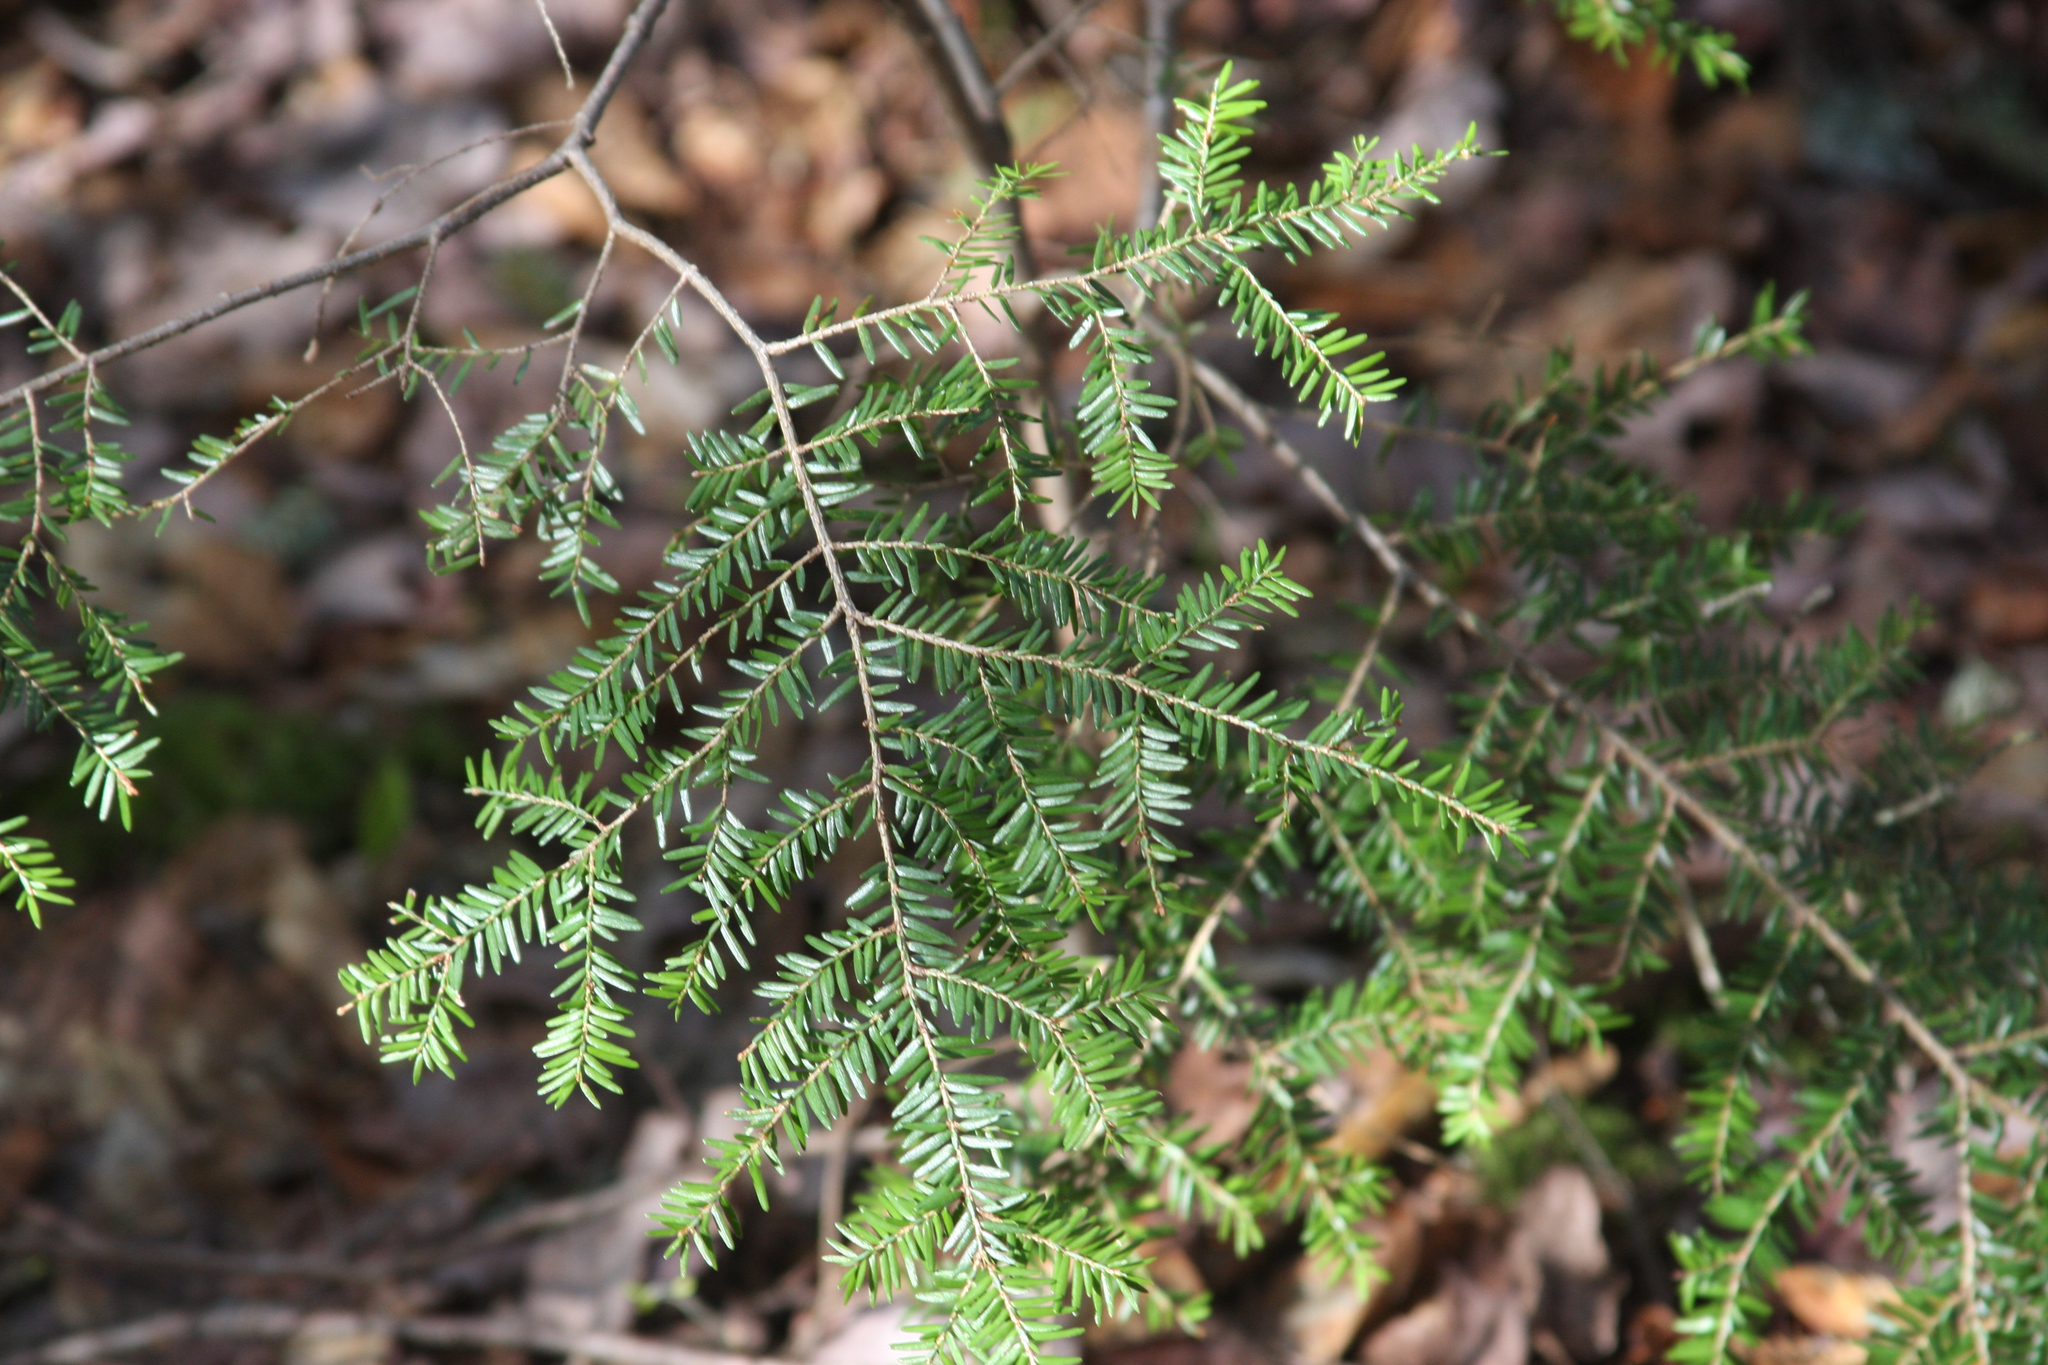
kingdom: Plantae
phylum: Tracheophyta
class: Pinopsida
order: Pinales
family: Pinaceae
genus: Tsuga
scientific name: Tsuga canadensis
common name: Eastern hemlock
